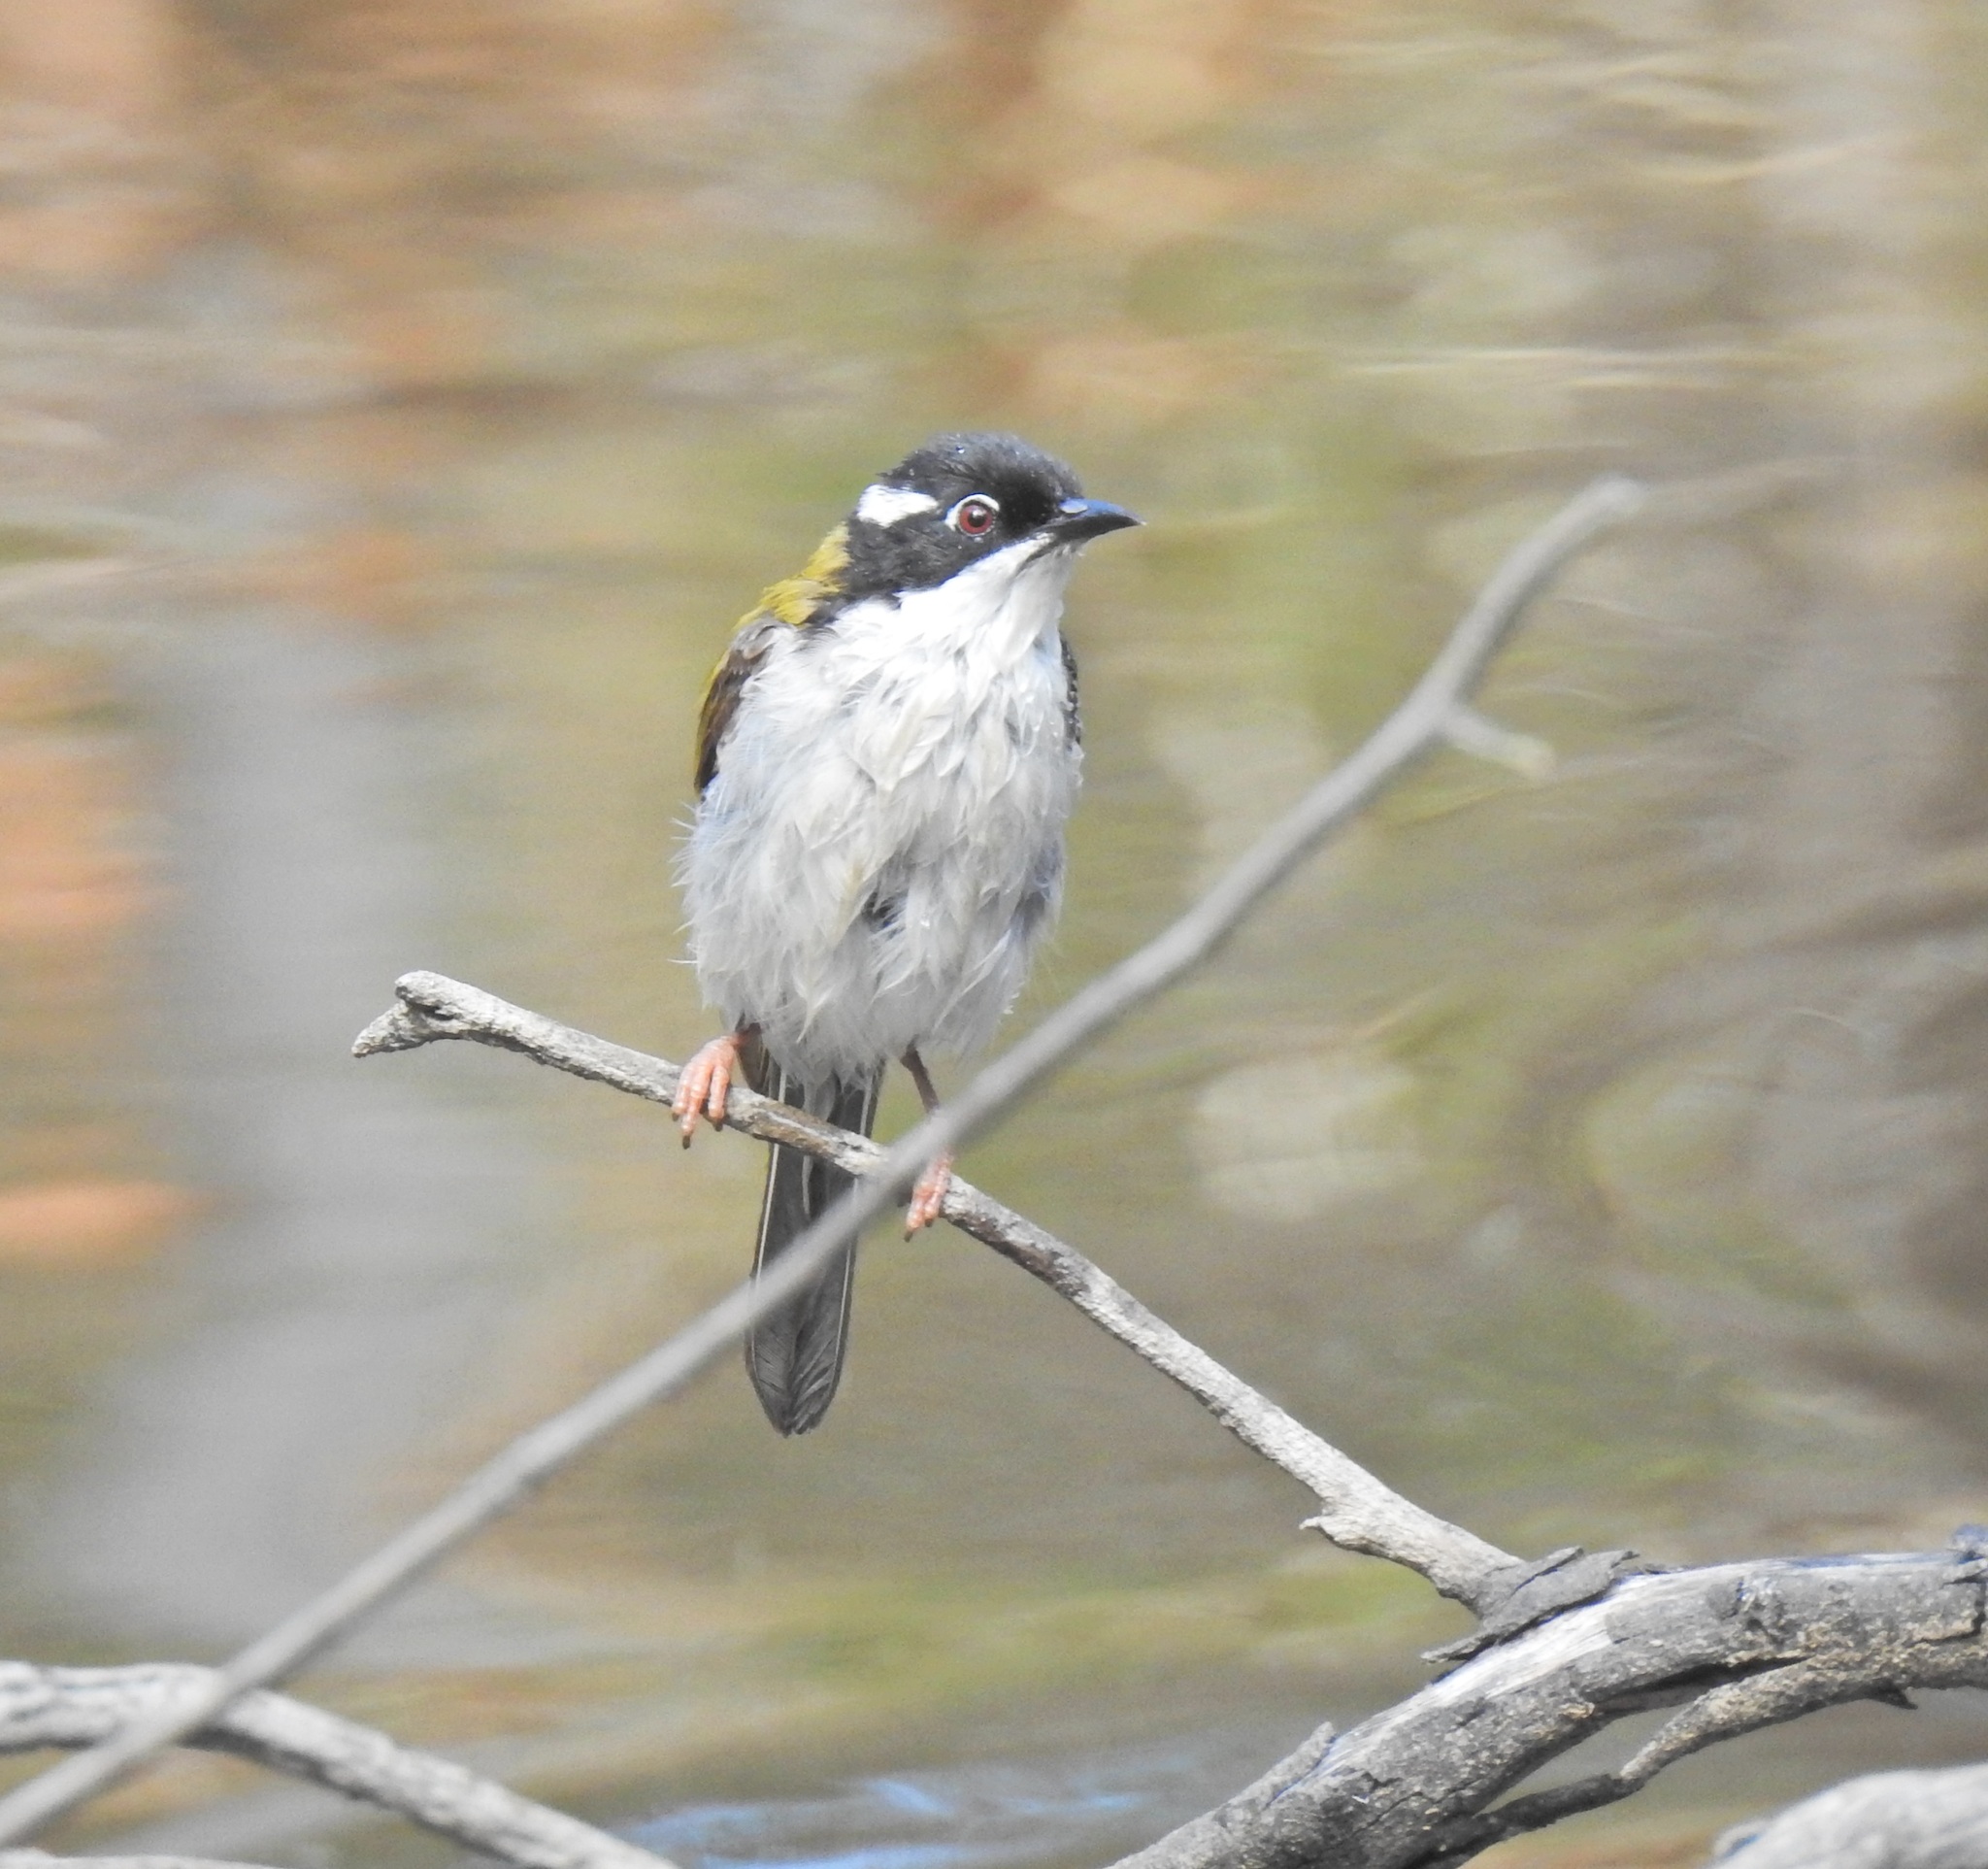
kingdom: Animalia
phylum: Chordata
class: Aves
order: Passeriformes
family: Meliphagidae
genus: Melithreptus
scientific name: Melithreptus albogularis
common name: White-throated honeyeater
